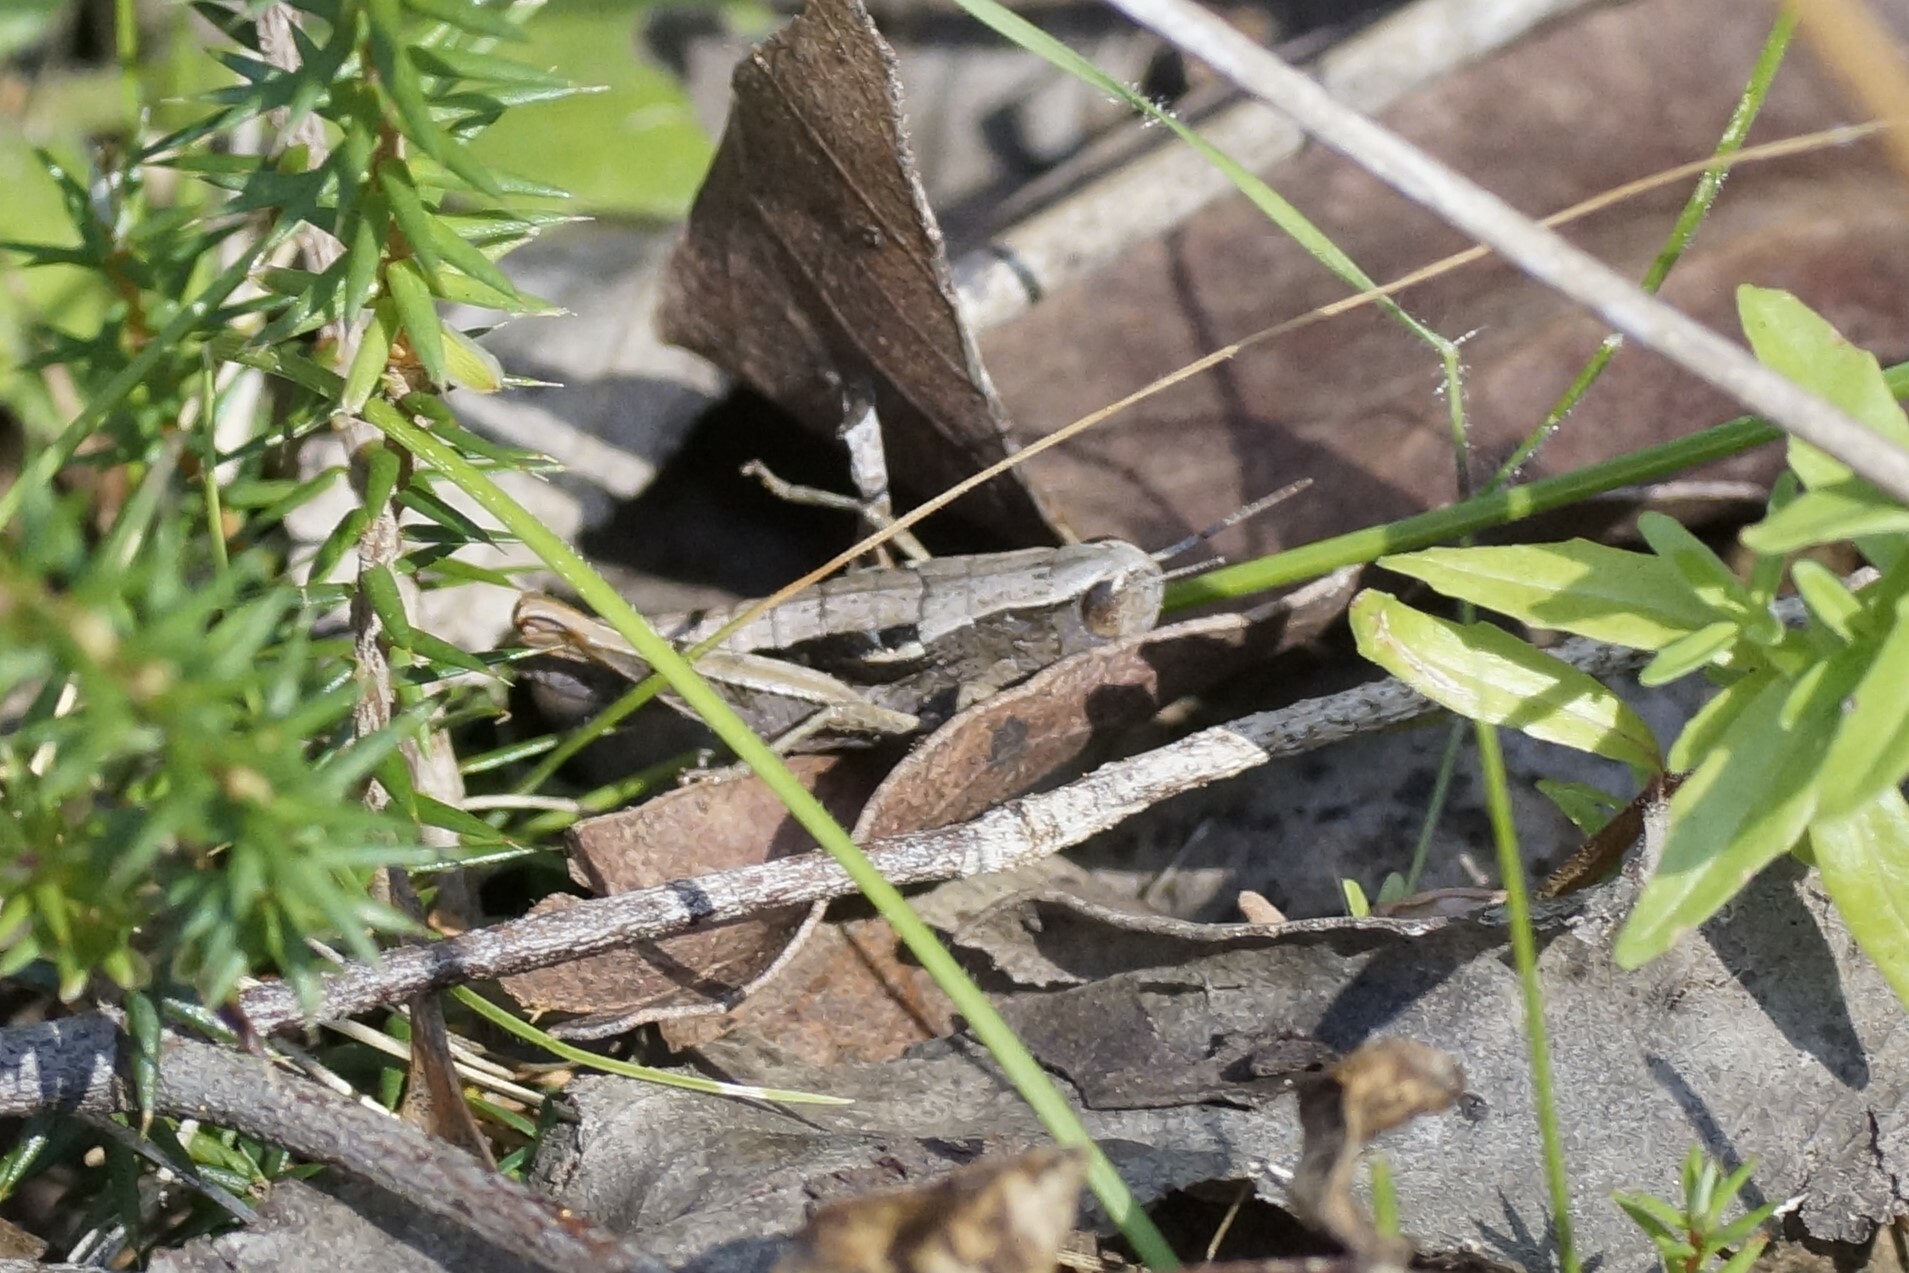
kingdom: Animalia
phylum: Arthropoda
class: Insecta
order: Orthoptera
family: Acrididae
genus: Russalpia
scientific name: Russalpia albertisi
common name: Tassie hopper
